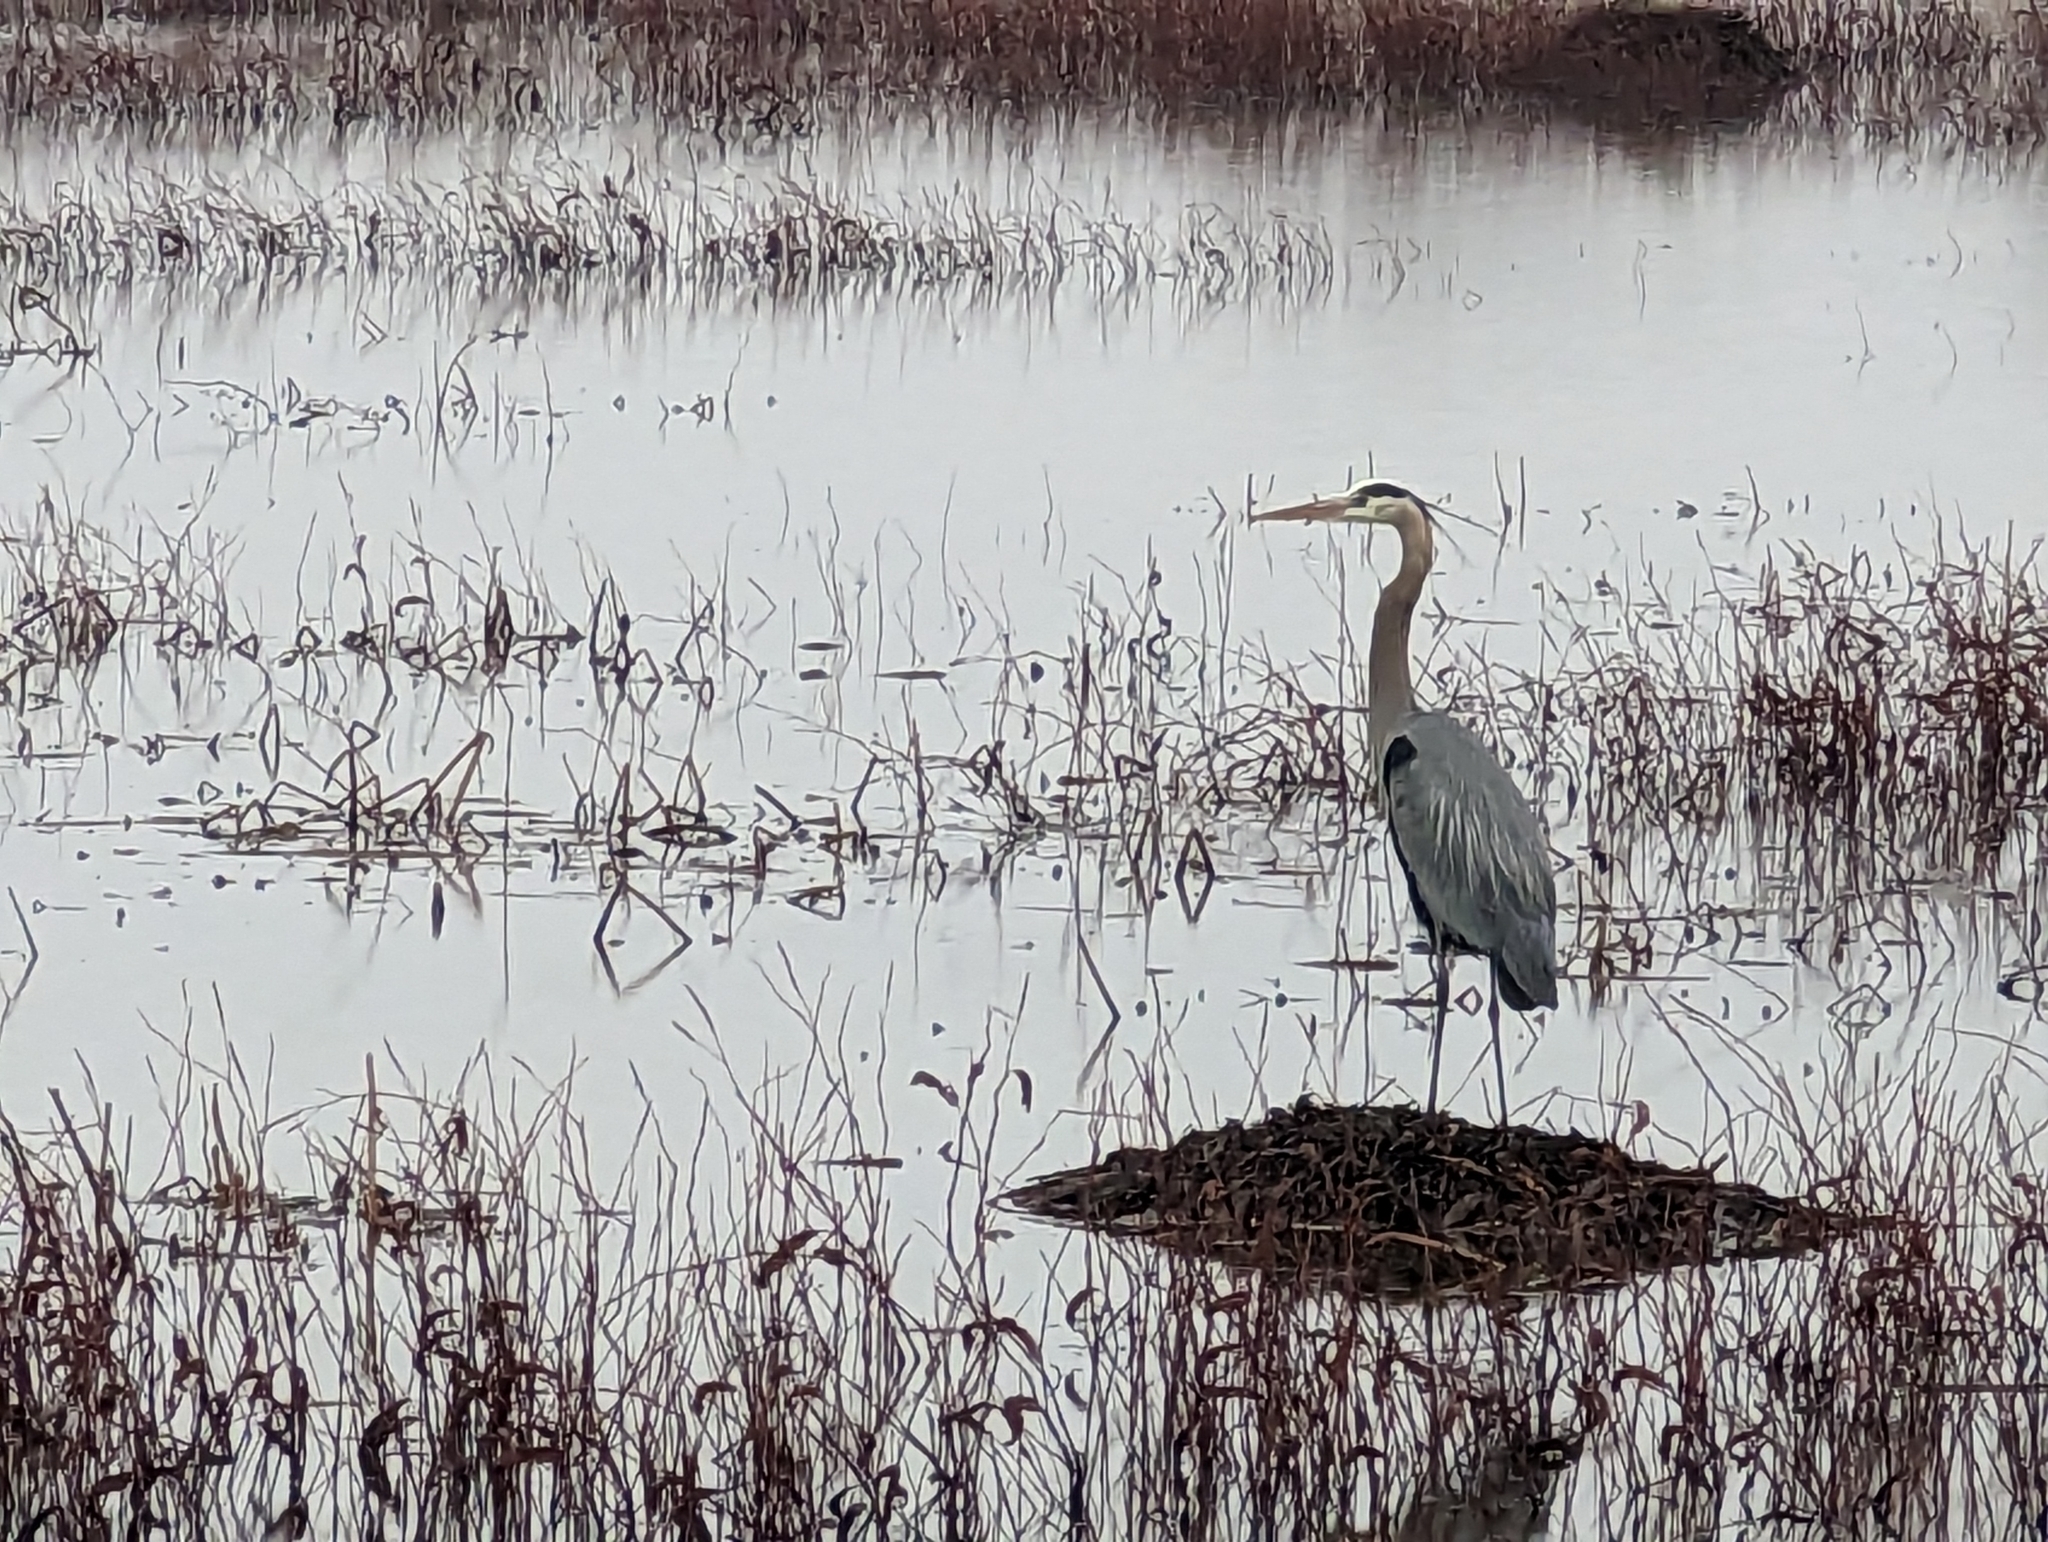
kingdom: Animalia
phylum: Chordata
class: Aves
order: Pelecaniformes
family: Ardeidae
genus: Ardea
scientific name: Ardea herodias
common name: Great blue heron
